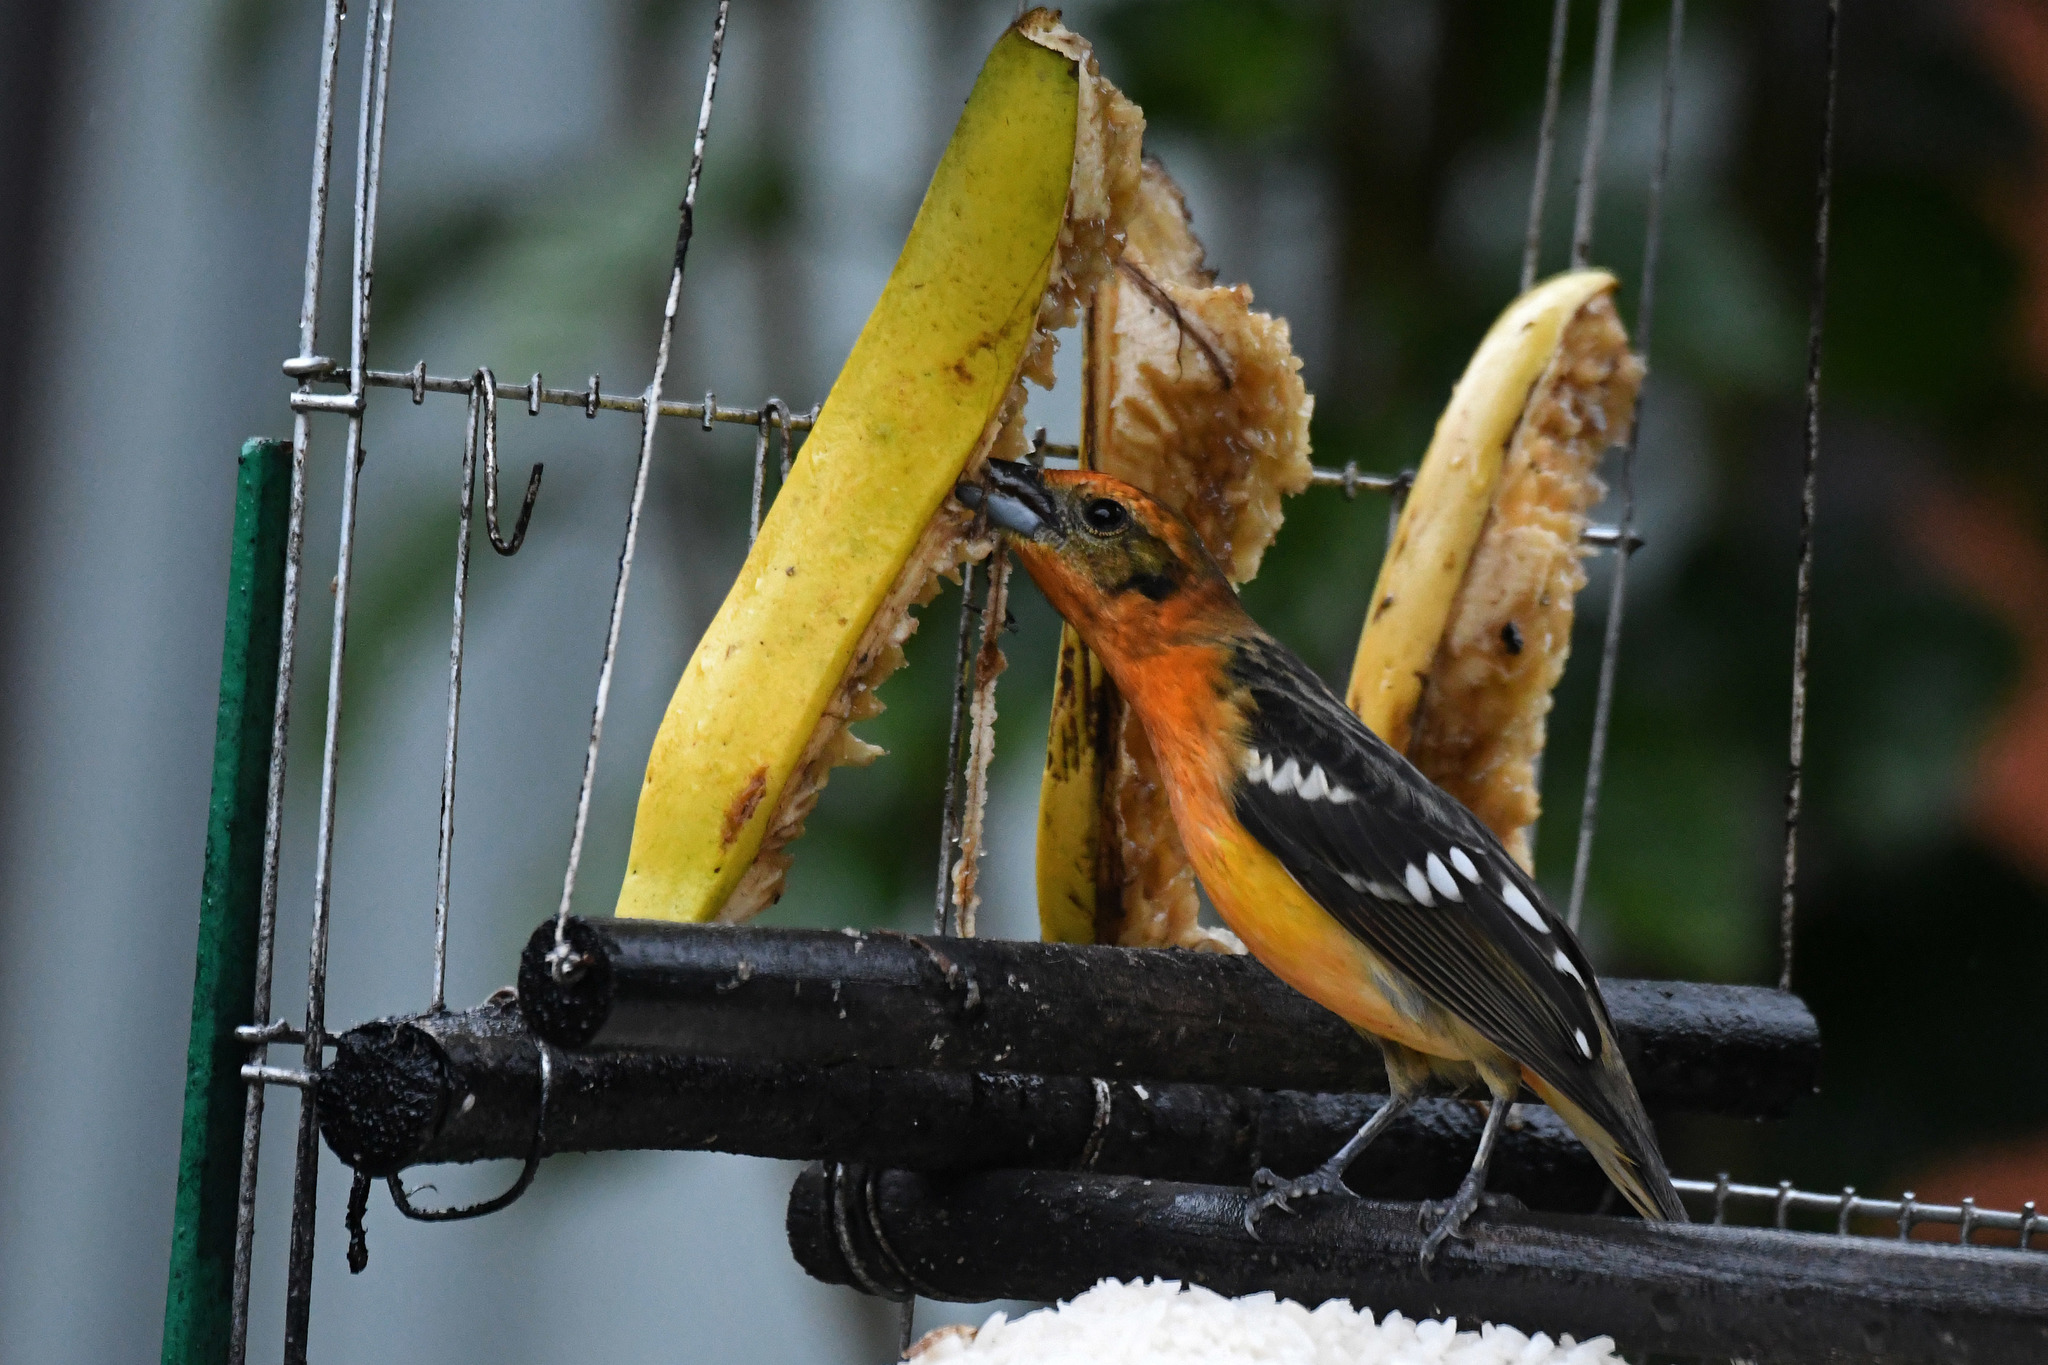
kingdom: Animalia
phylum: Chordata
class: Aves
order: Passeriformes
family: Cardinalidae
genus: Piranga
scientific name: Piranga bidentata
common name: Flame-colored tanager
